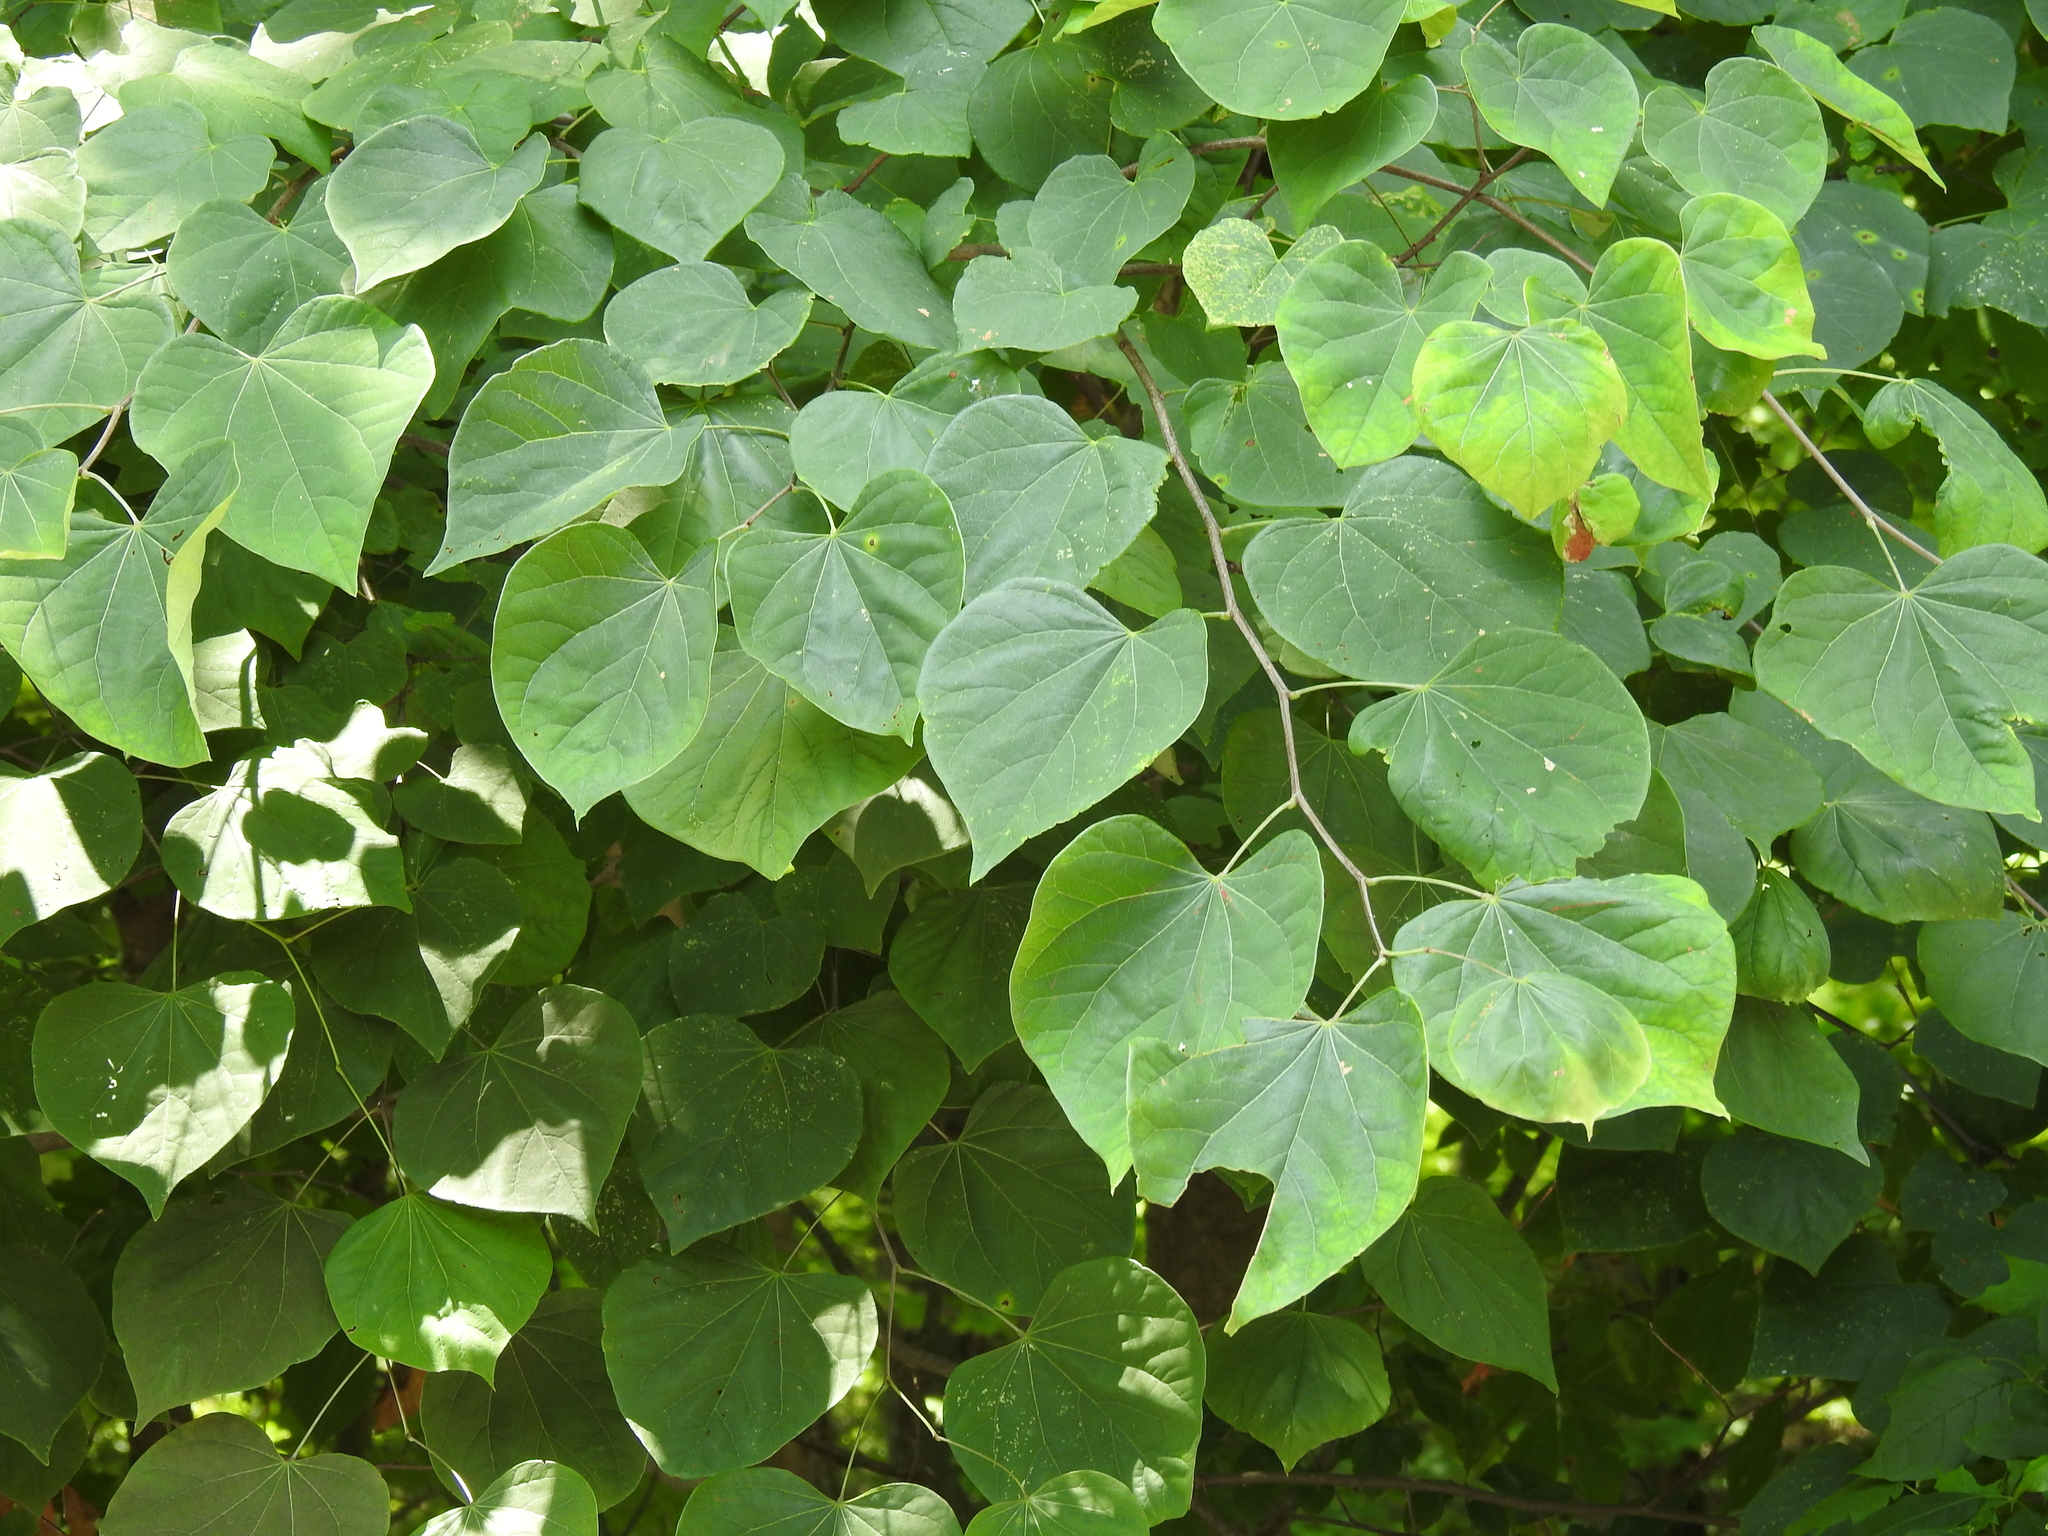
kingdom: Plantae
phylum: Tracheophyta
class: Magnoliopsida
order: Fabales
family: Fabaceae
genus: Cercis
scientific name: Cercis canadensis
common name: Eastern redbud
